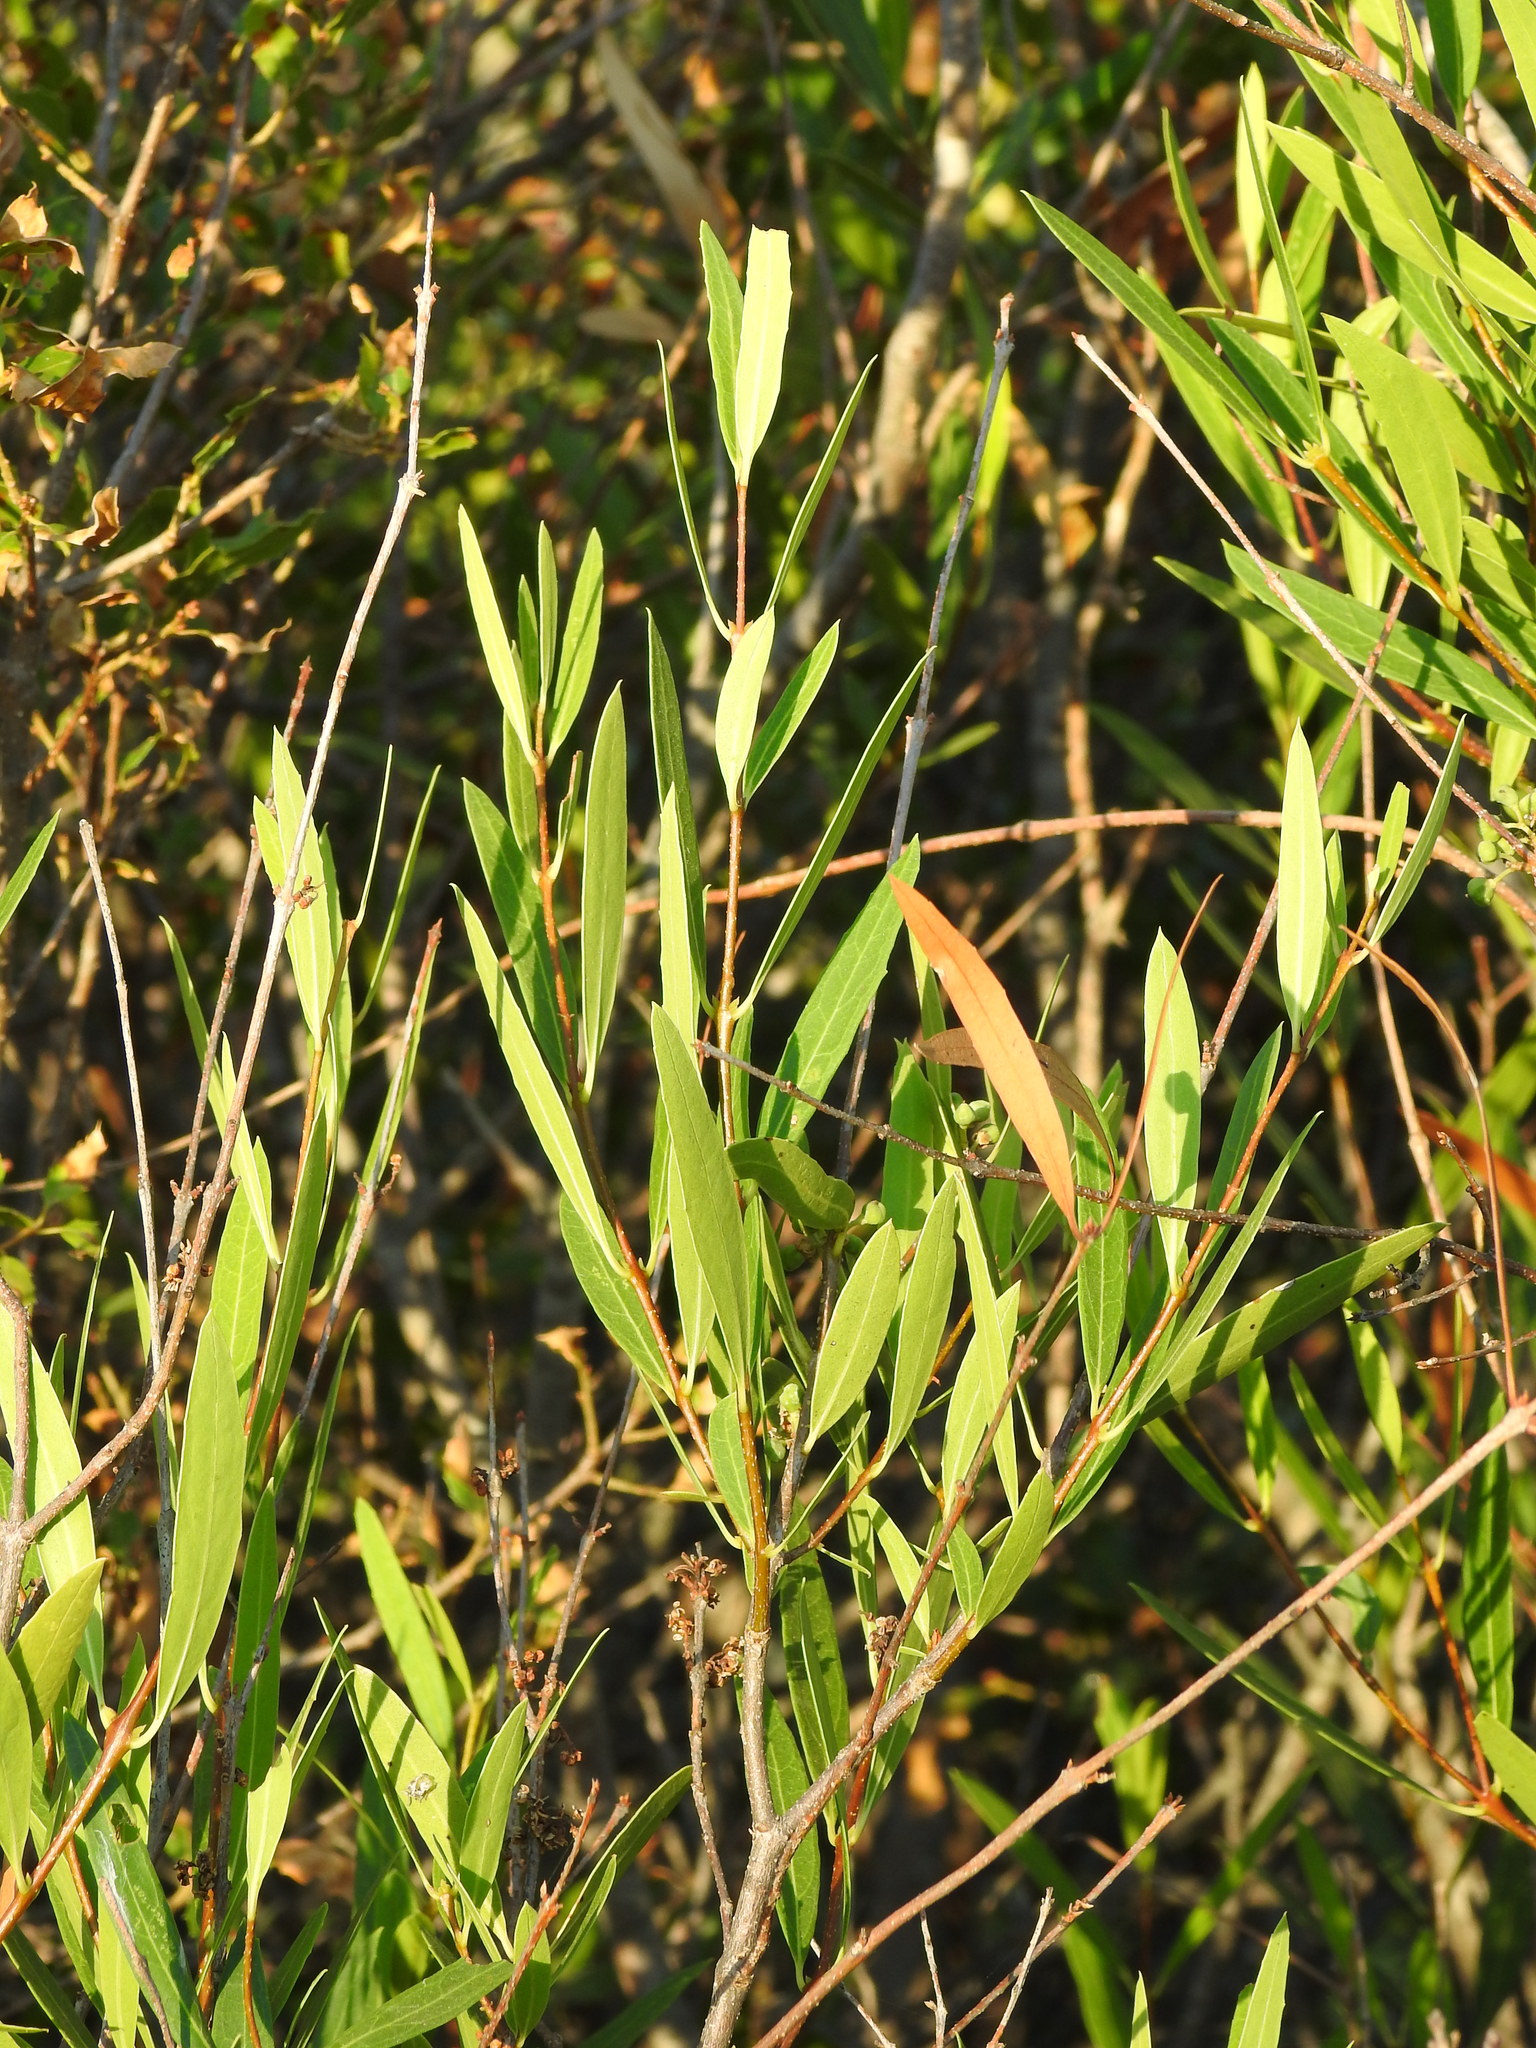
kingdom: Plantae
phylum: Tracheophyta
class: Magnoliopsida
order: Lamiales
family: Oleaceae
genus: Phillyrea
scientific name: Phillyrea angustifolia
